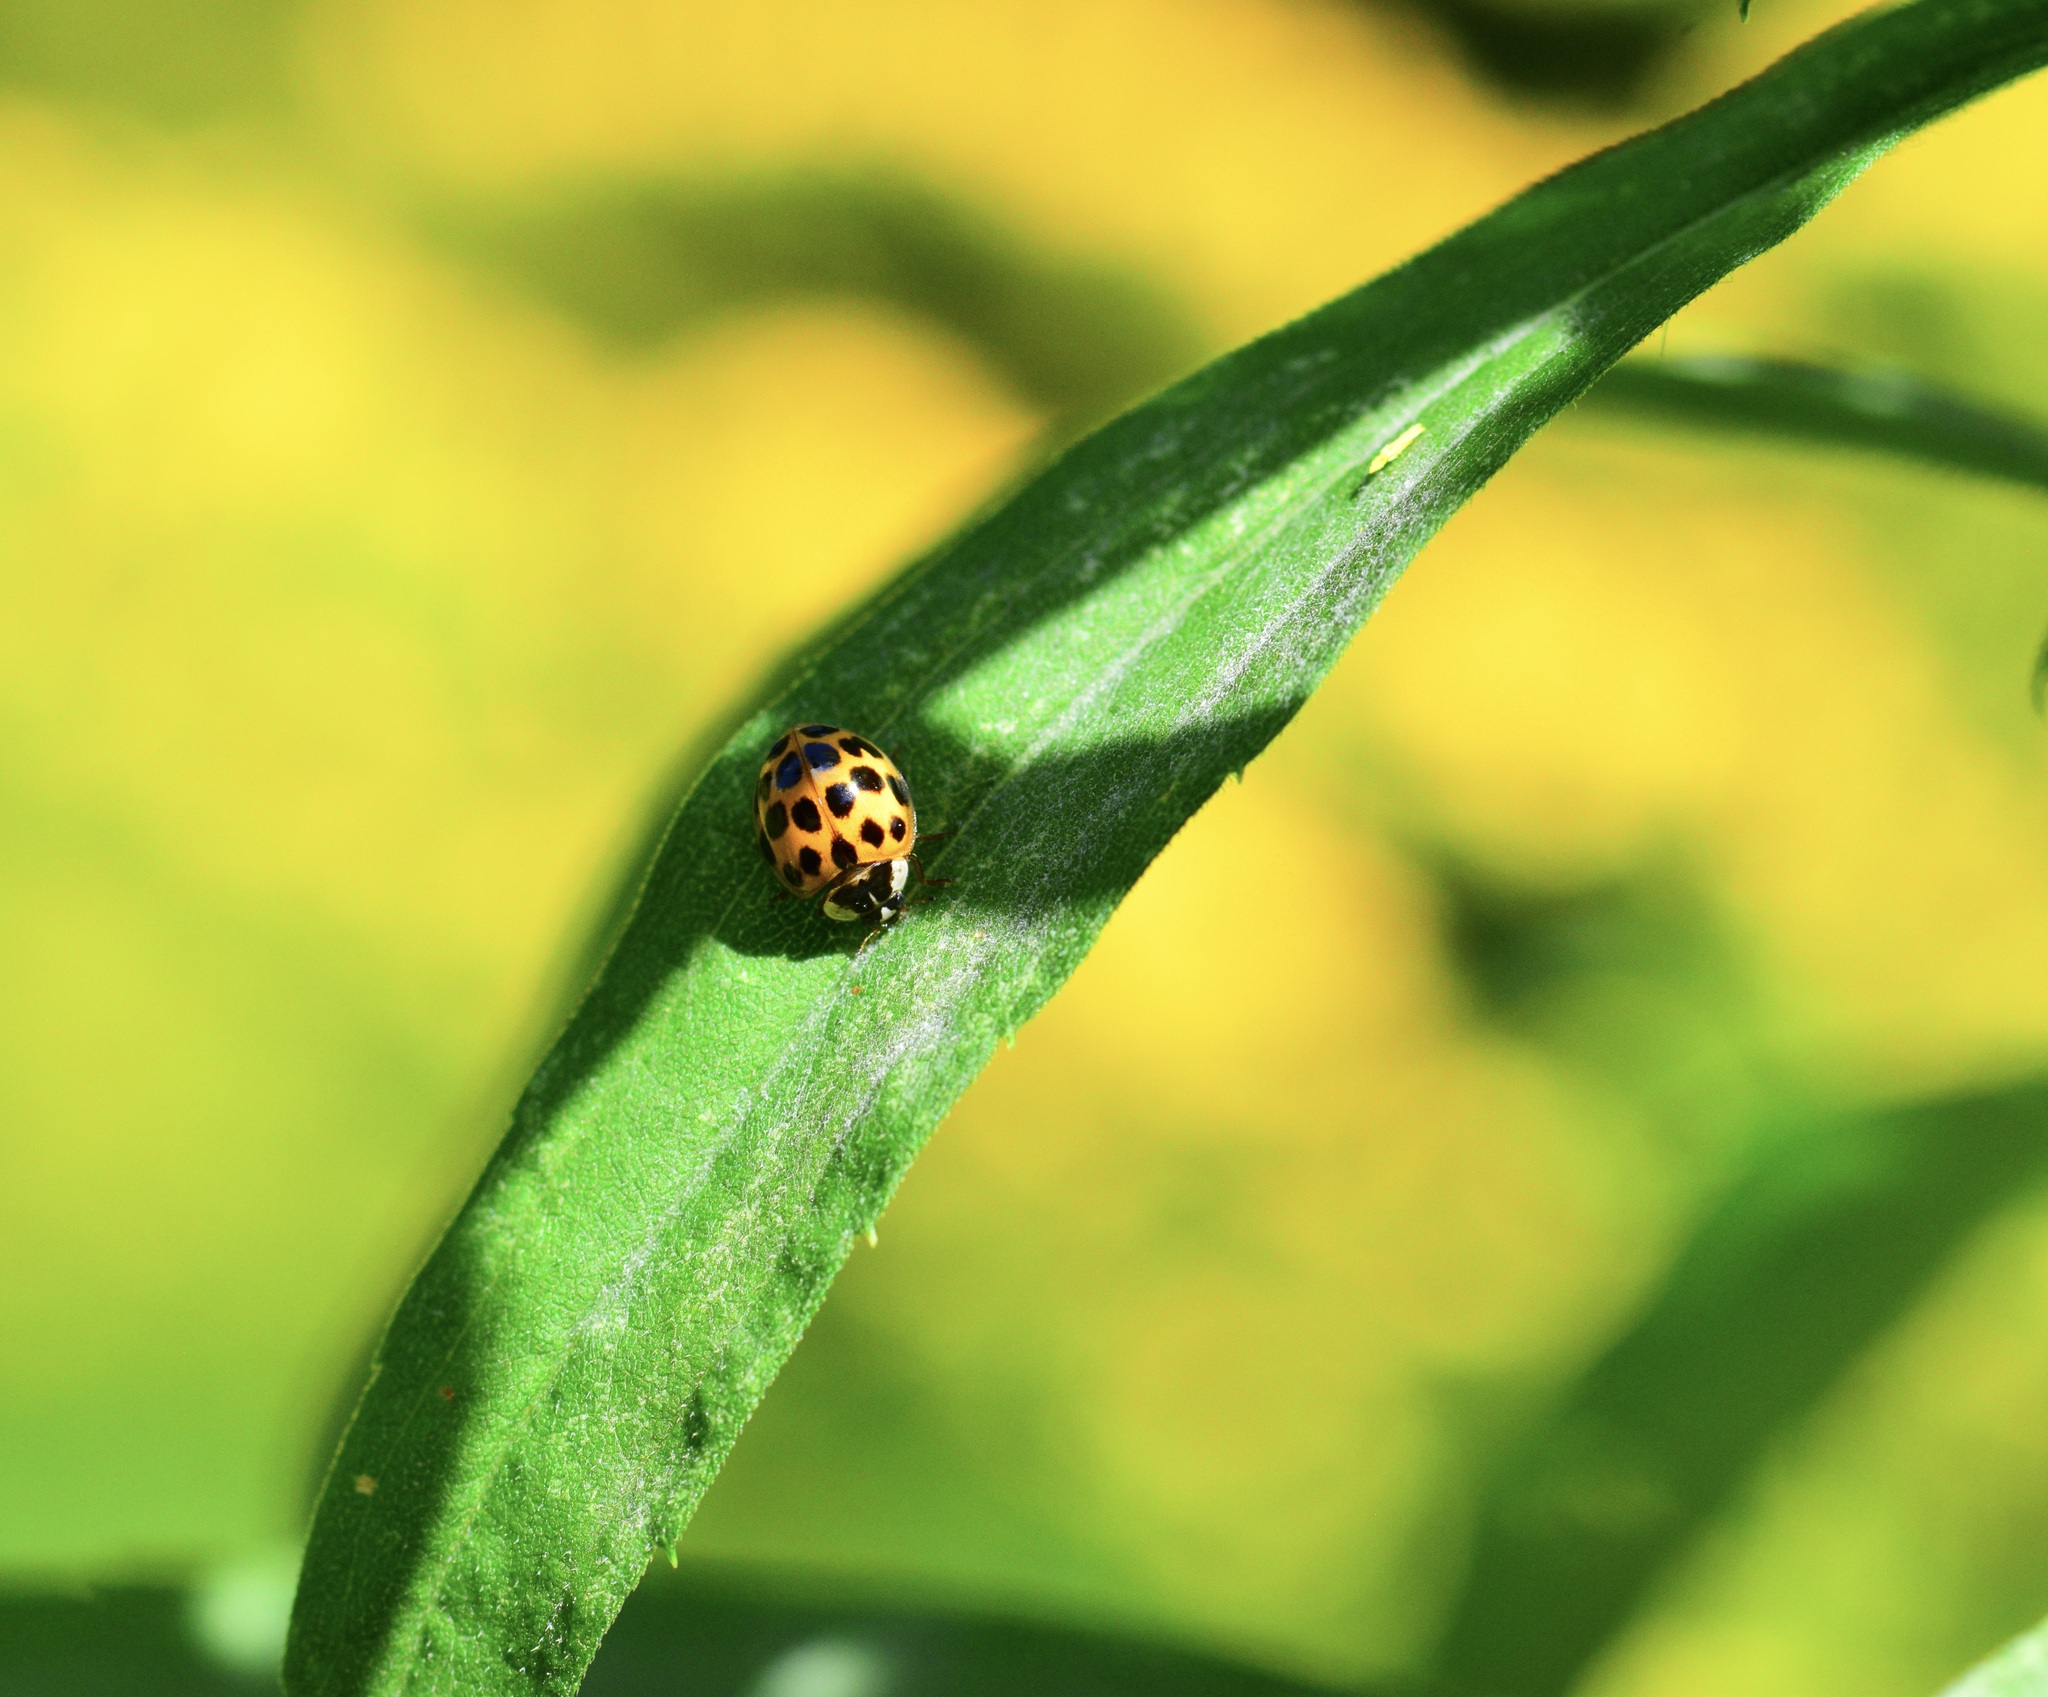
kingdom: Animalia
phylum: Arthropoda
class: Insecta
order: Coleoptera
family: Coccinellidae
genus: Harmonia
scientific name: Harmonia axyridis
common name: Harlequin ladybird
